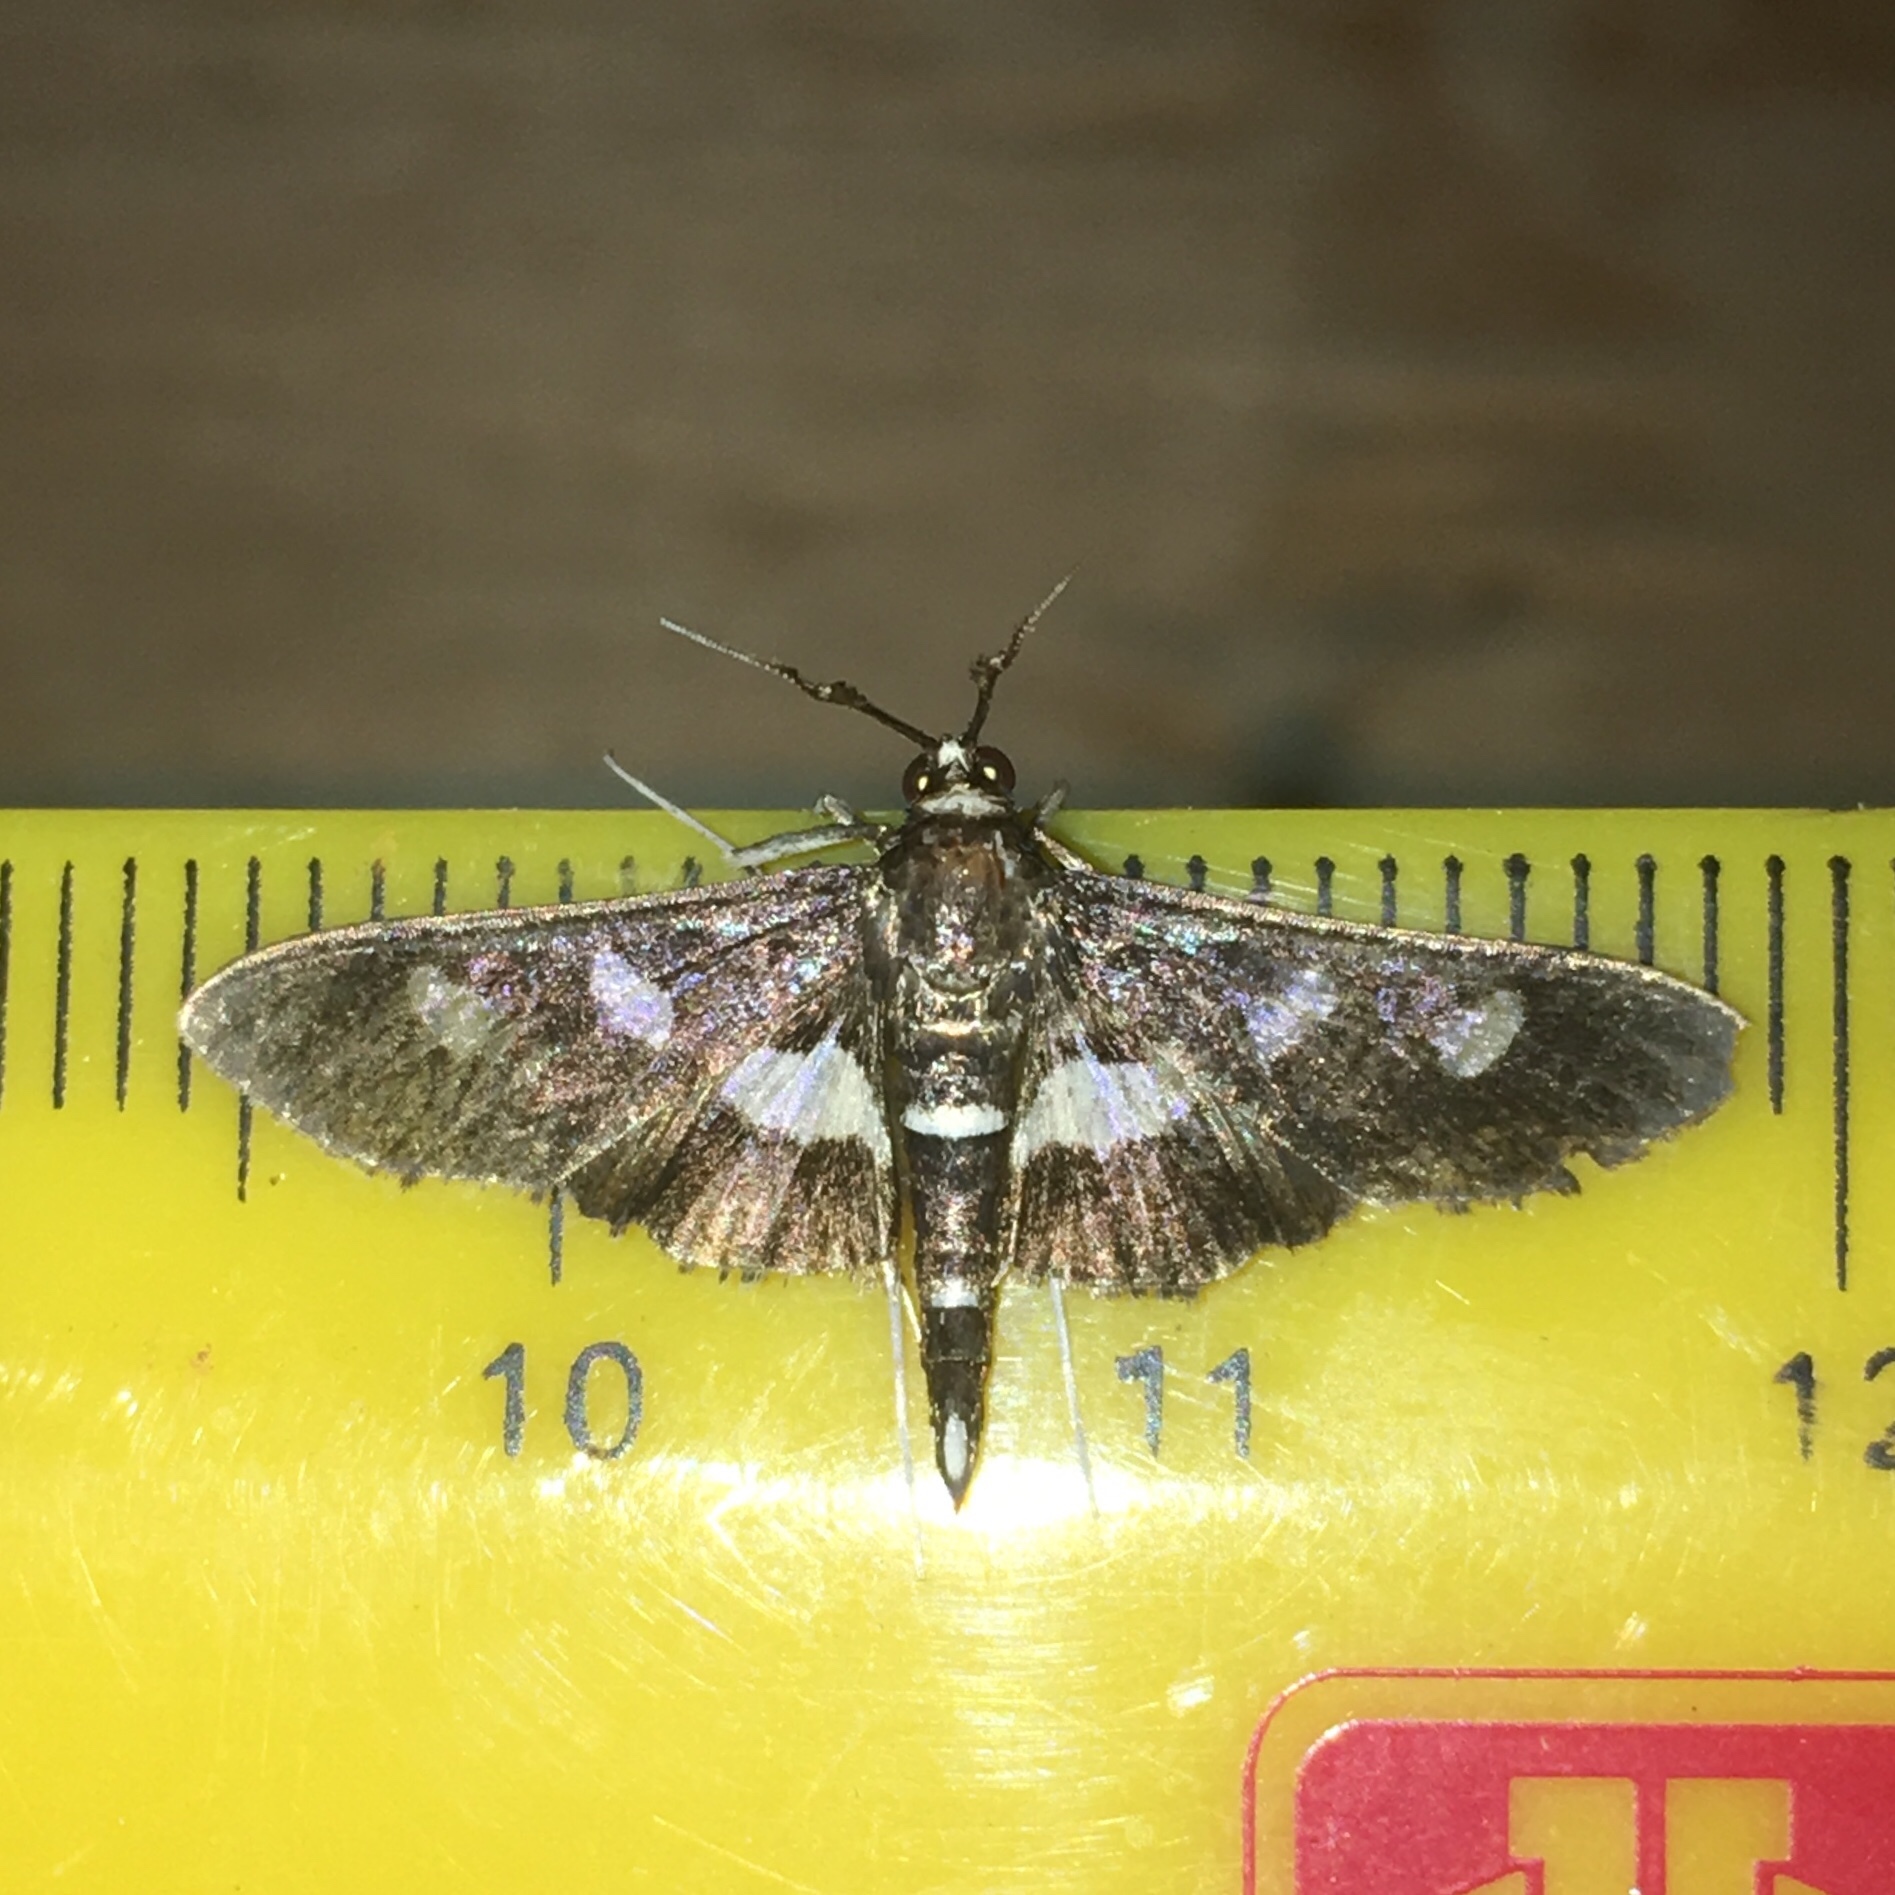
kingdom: Animalia
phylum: Arthropoda
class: Insecta
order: Lepidoptera
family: Crambidae
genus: Desmia
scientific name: Desmia funeralis
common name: Grape leaf folder moth
